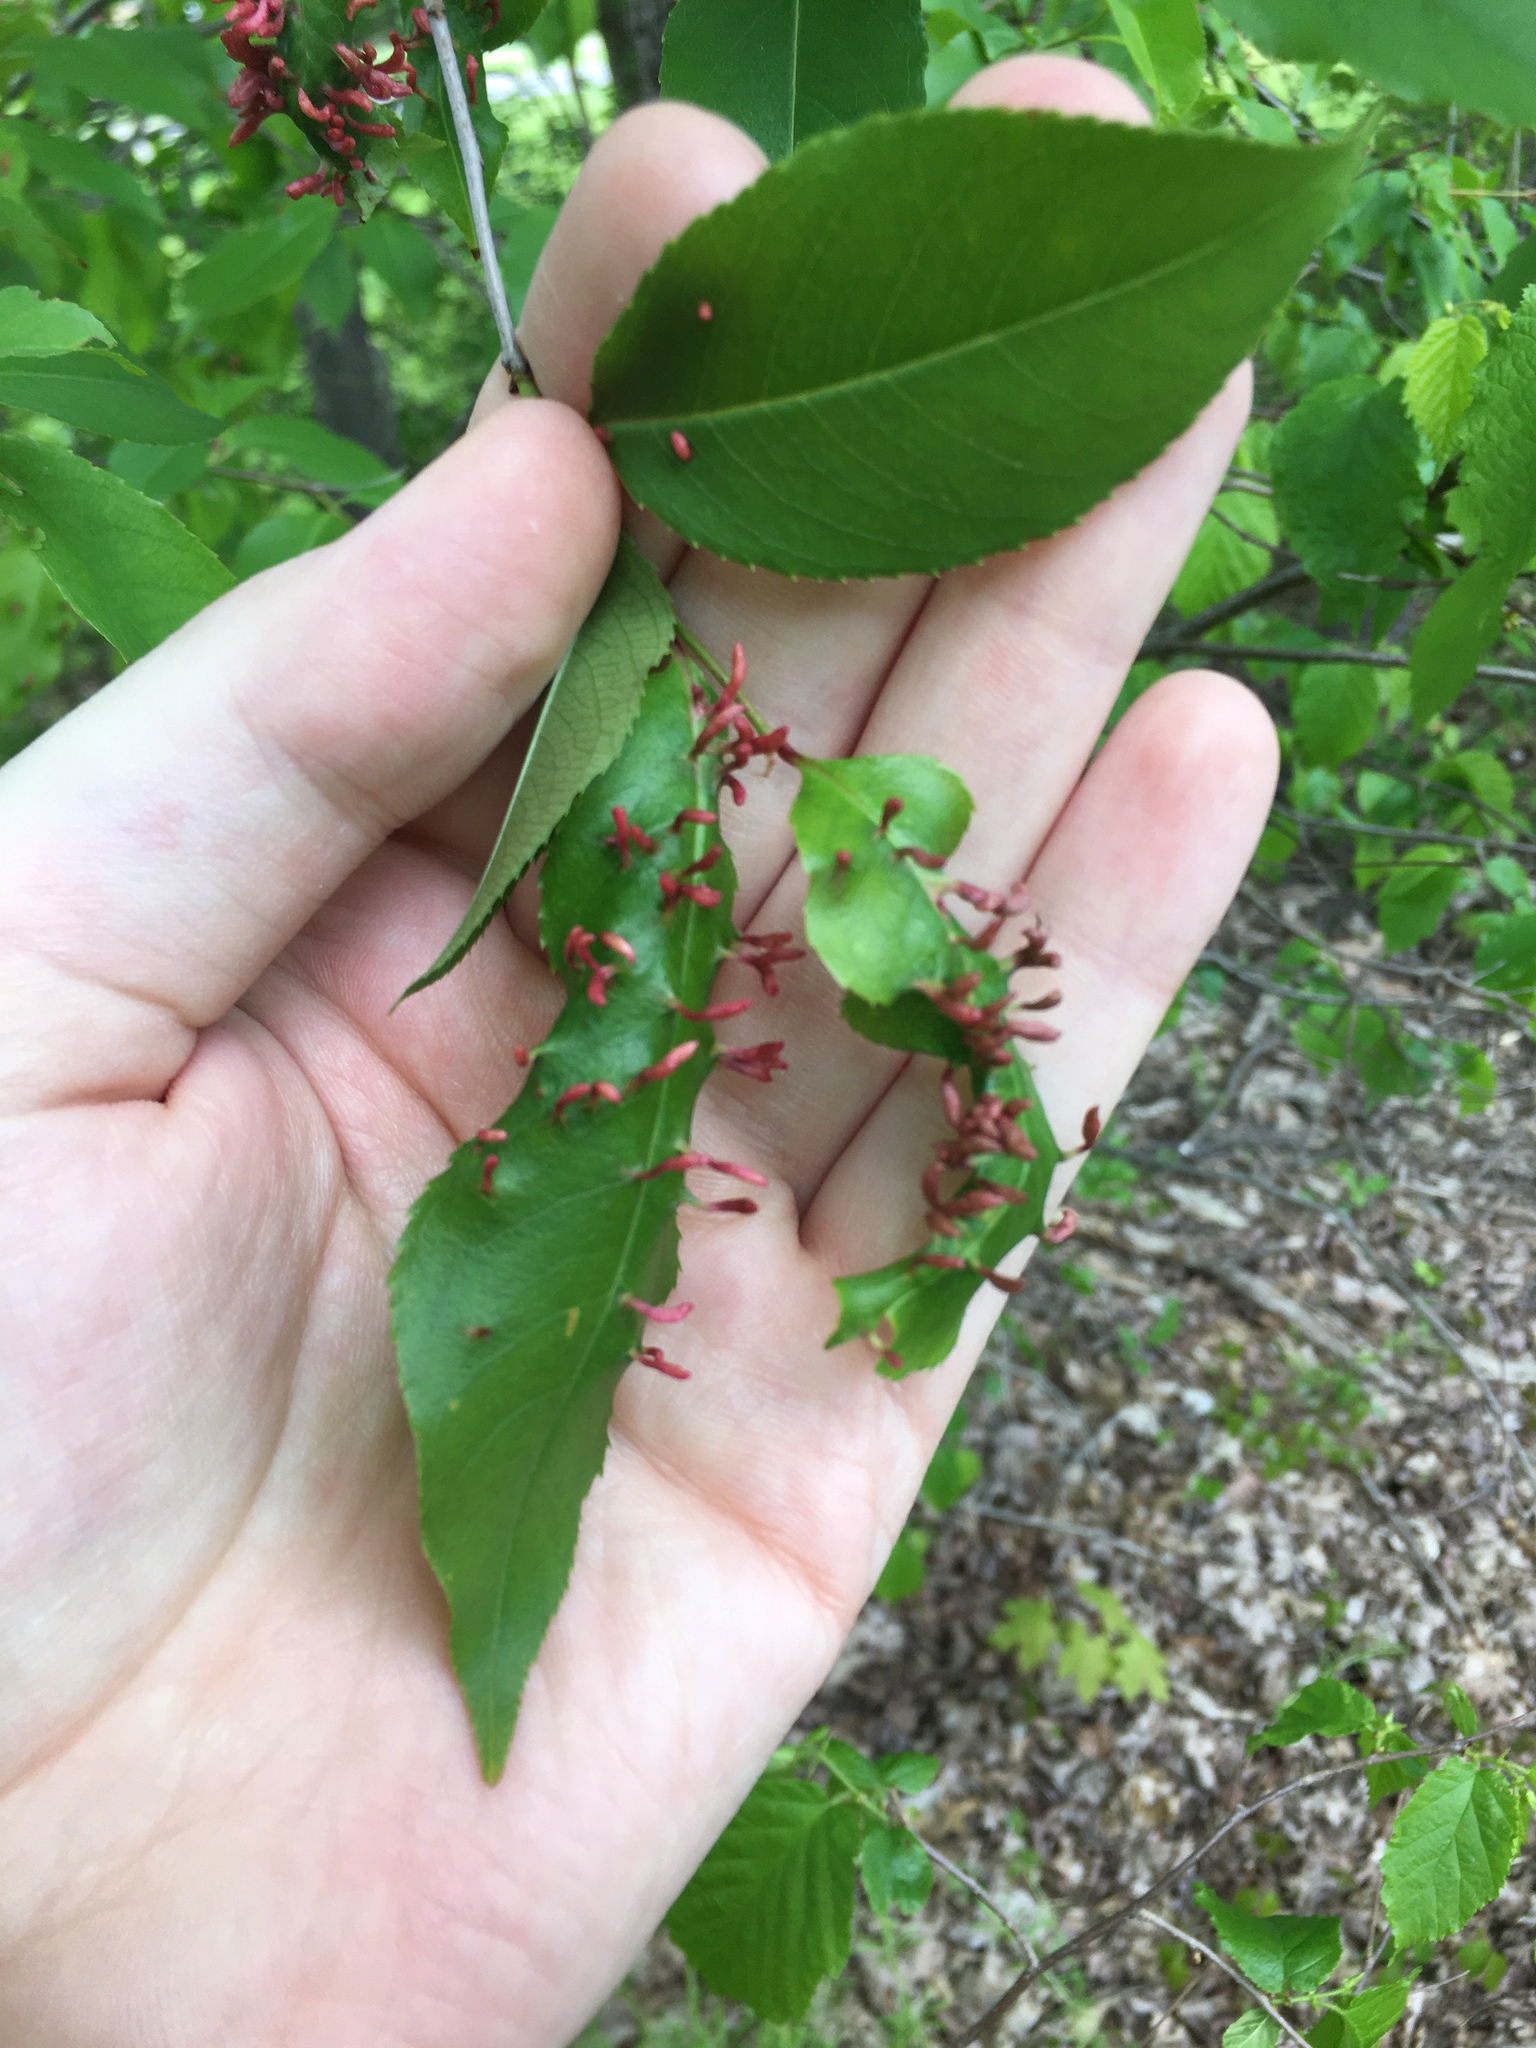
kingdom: Animalia
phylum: Arthropoda
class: Arachnida
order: Trombidiformes
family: Eriophyidae
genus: Eriophyes
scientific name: Eriophyes
